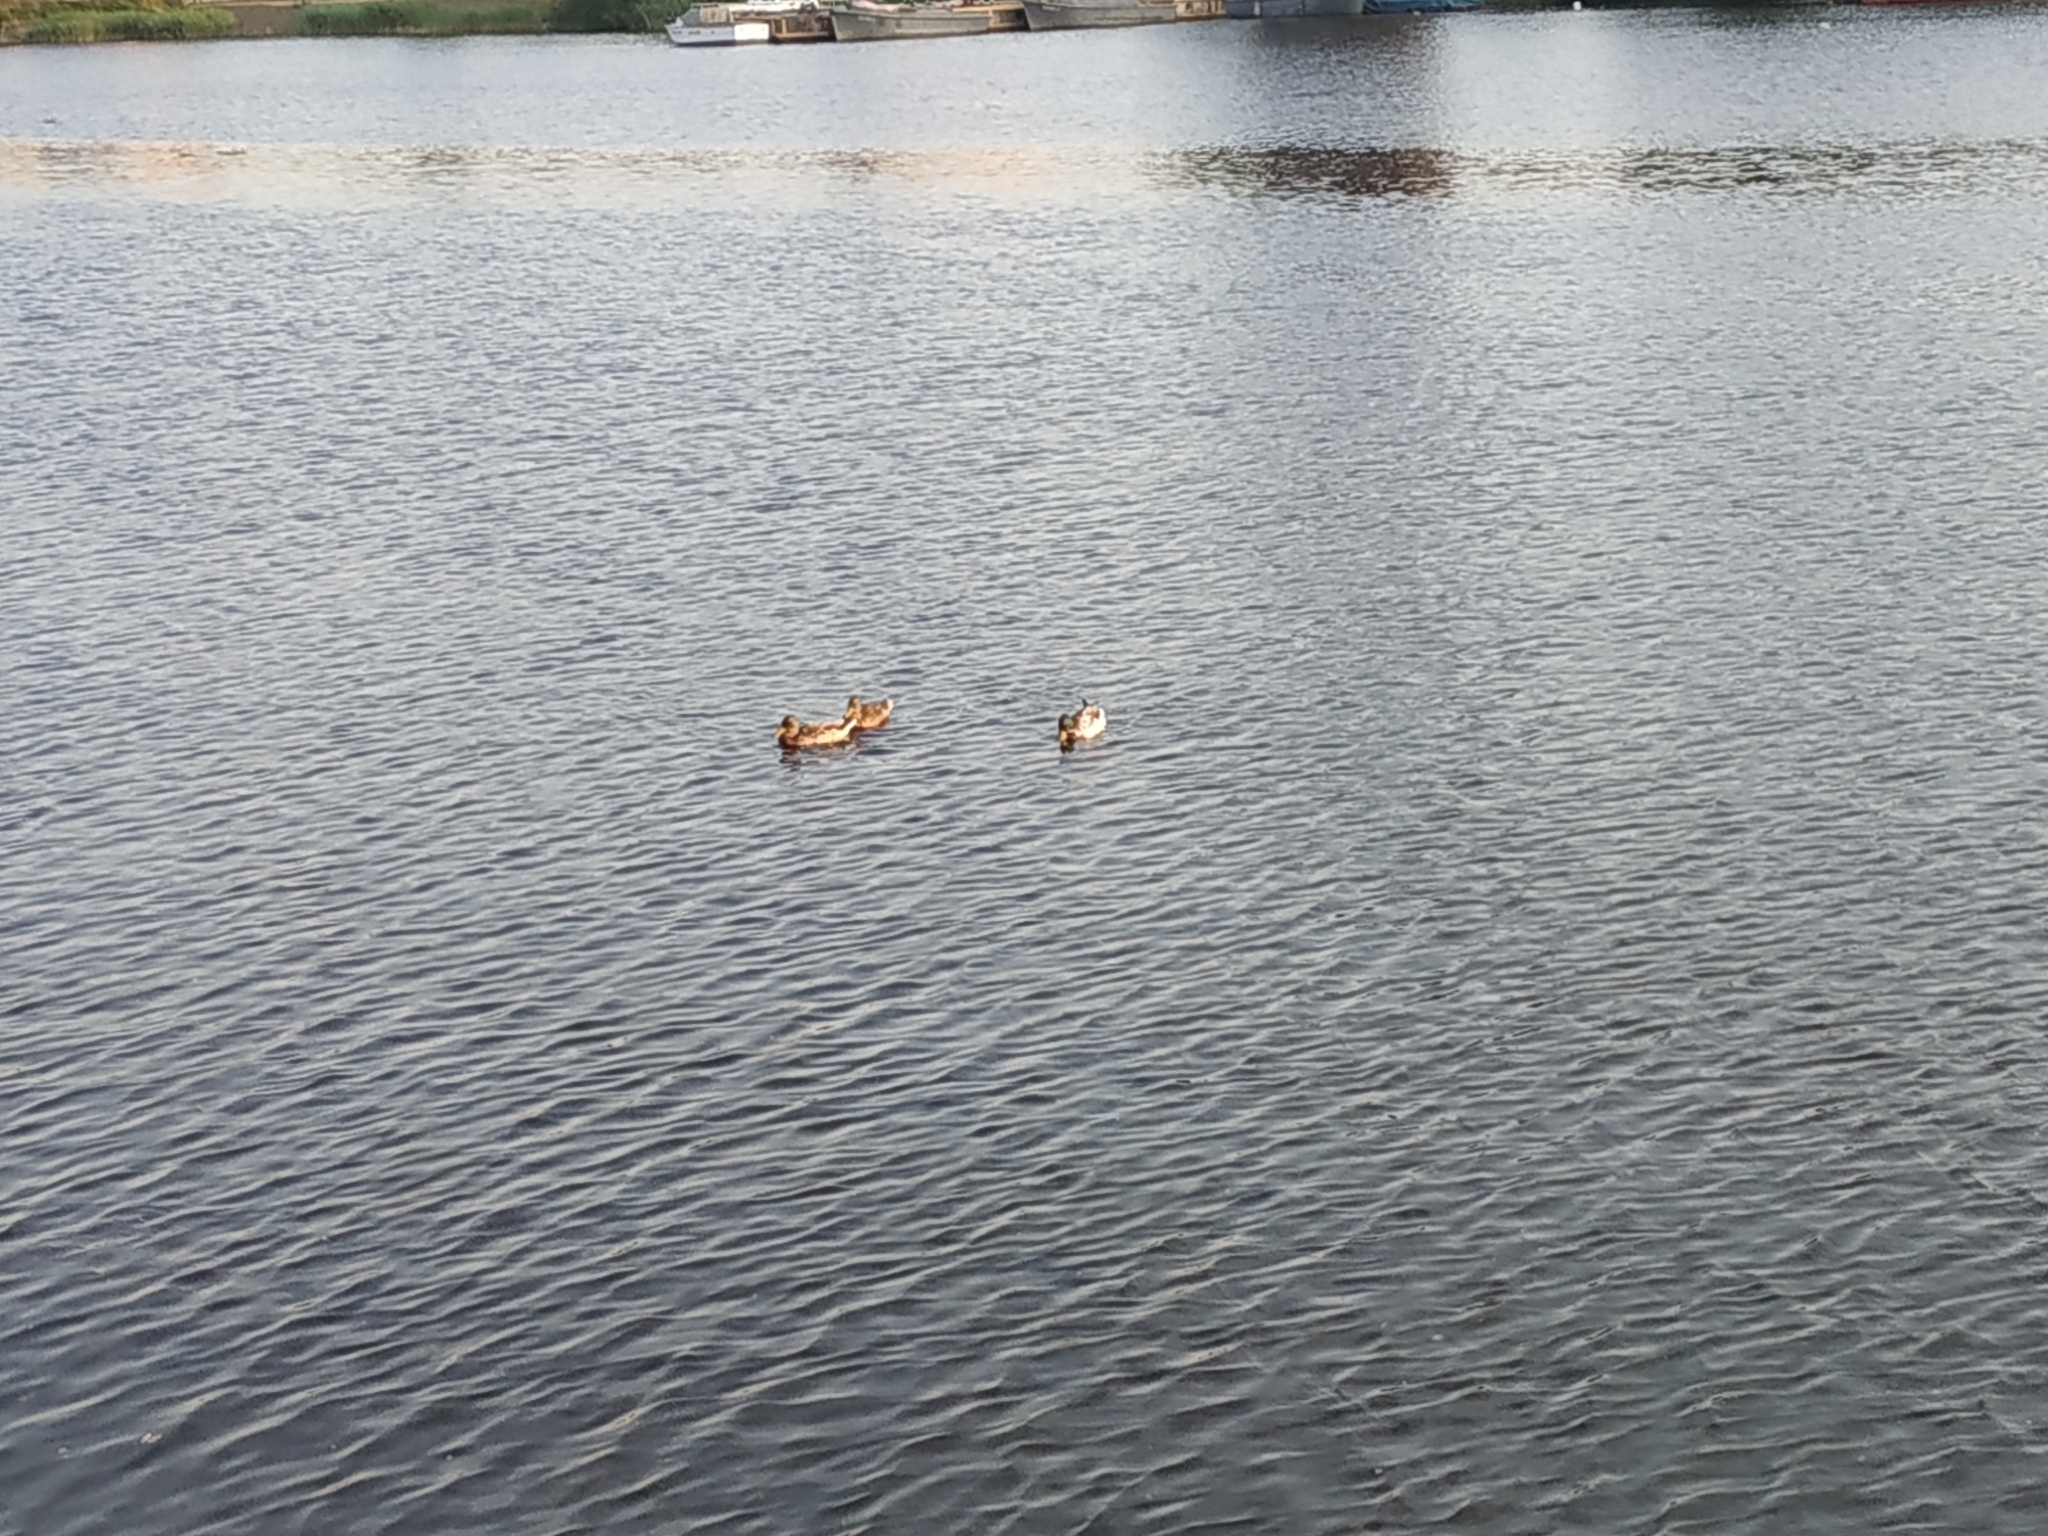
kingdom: Animalia
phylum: Chordata
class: Aves
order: Anseriformes
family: Anatidae
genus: Anas
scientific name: Anas platyrhynchos
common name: Mallard
